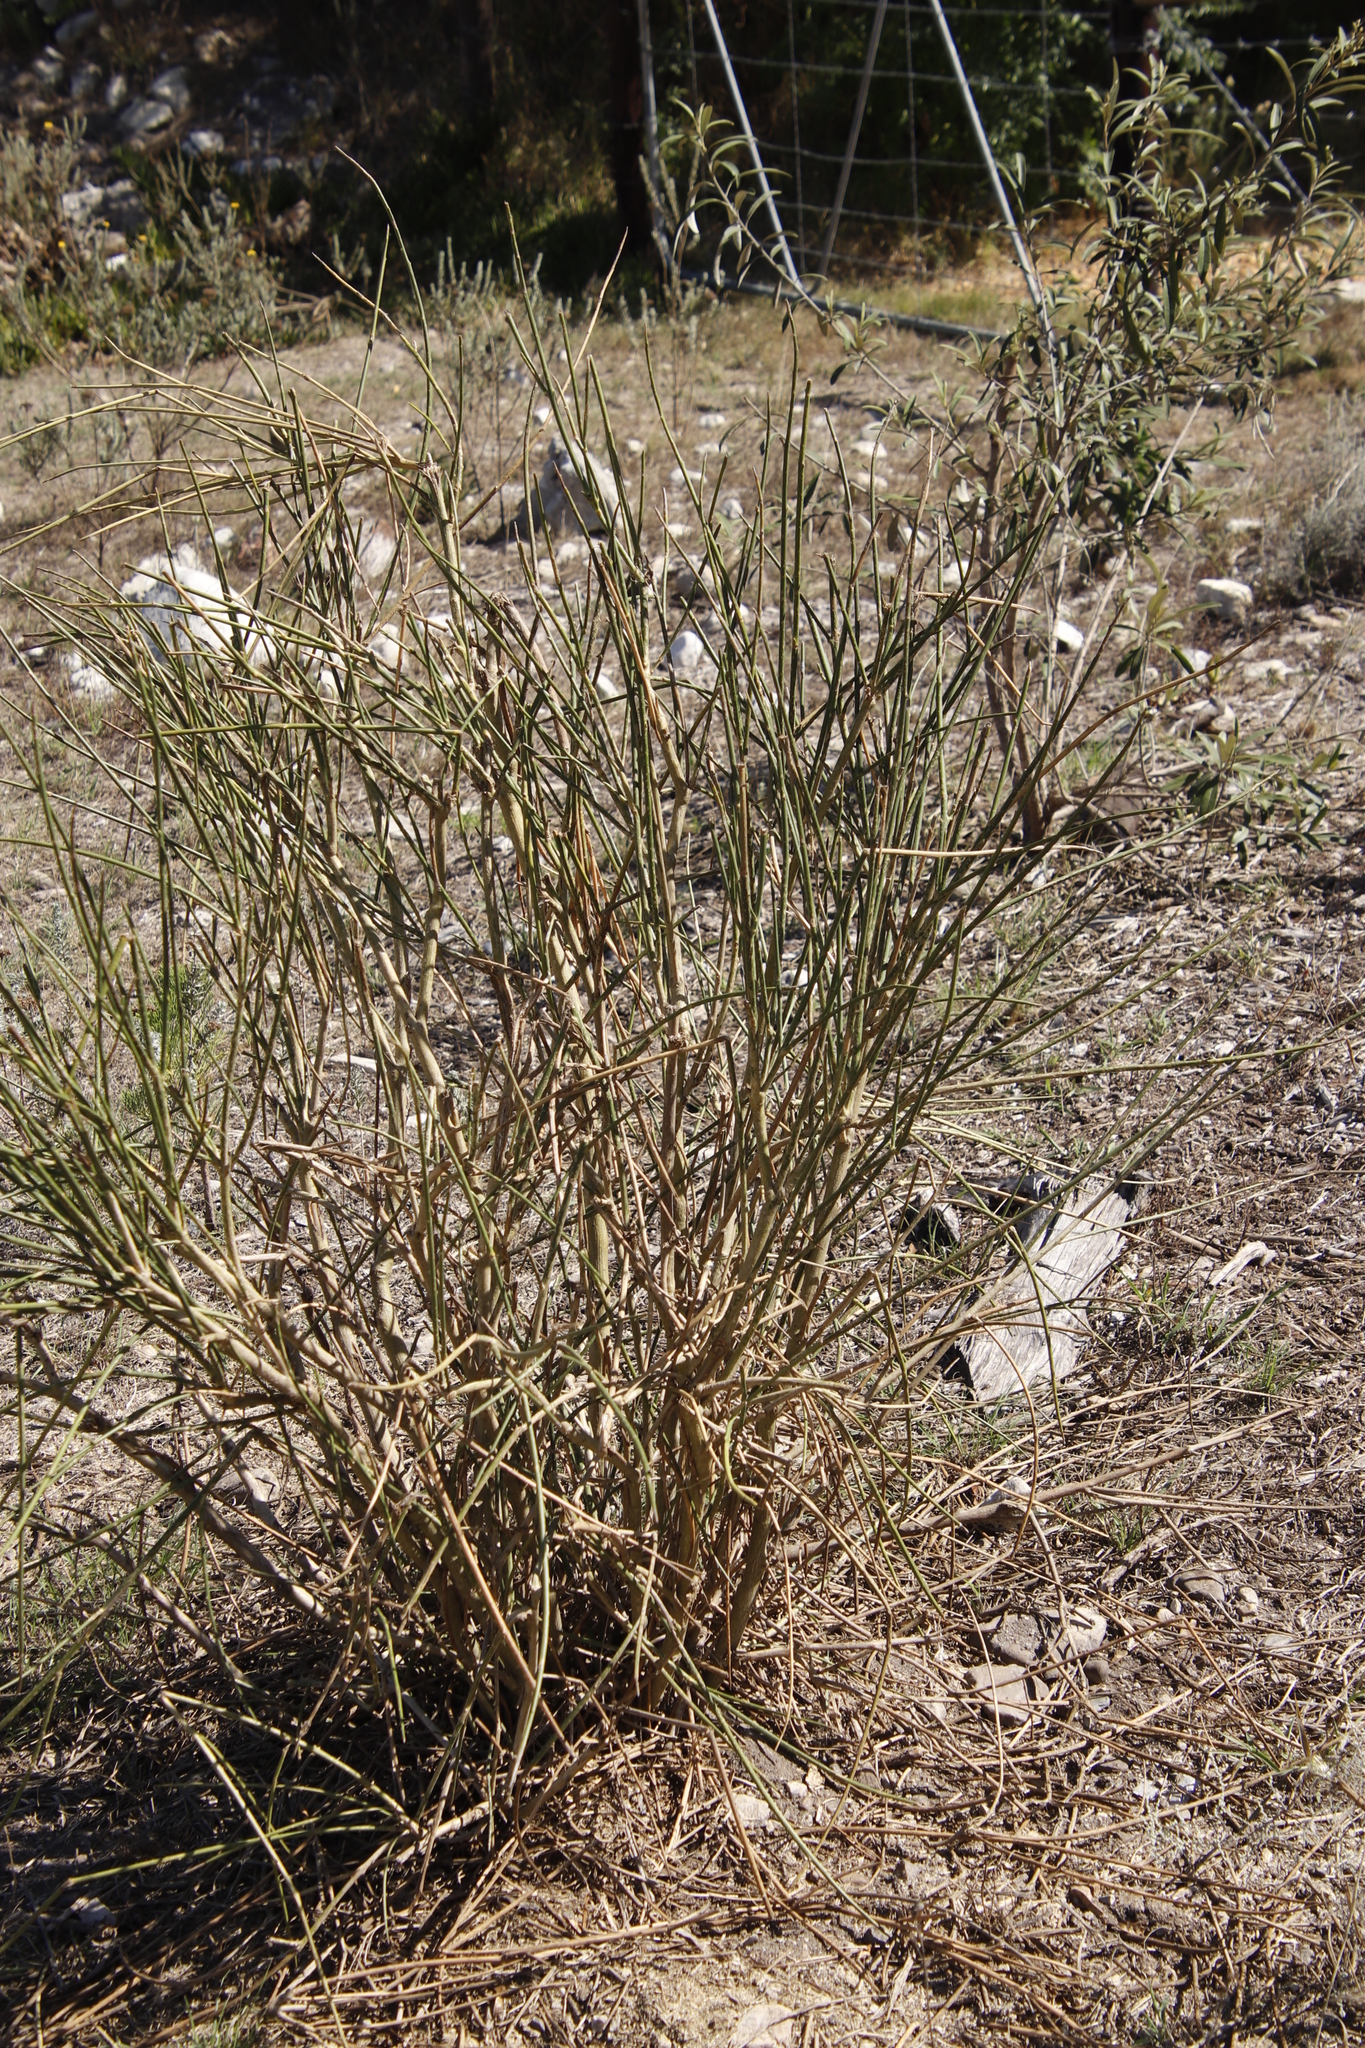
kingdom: Plantae
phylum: Tracheophyta
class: Magnoliopsida
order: Fabales
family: Fabaceae
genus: Spartium
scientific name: Spartium junceum
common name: Spanish broom
